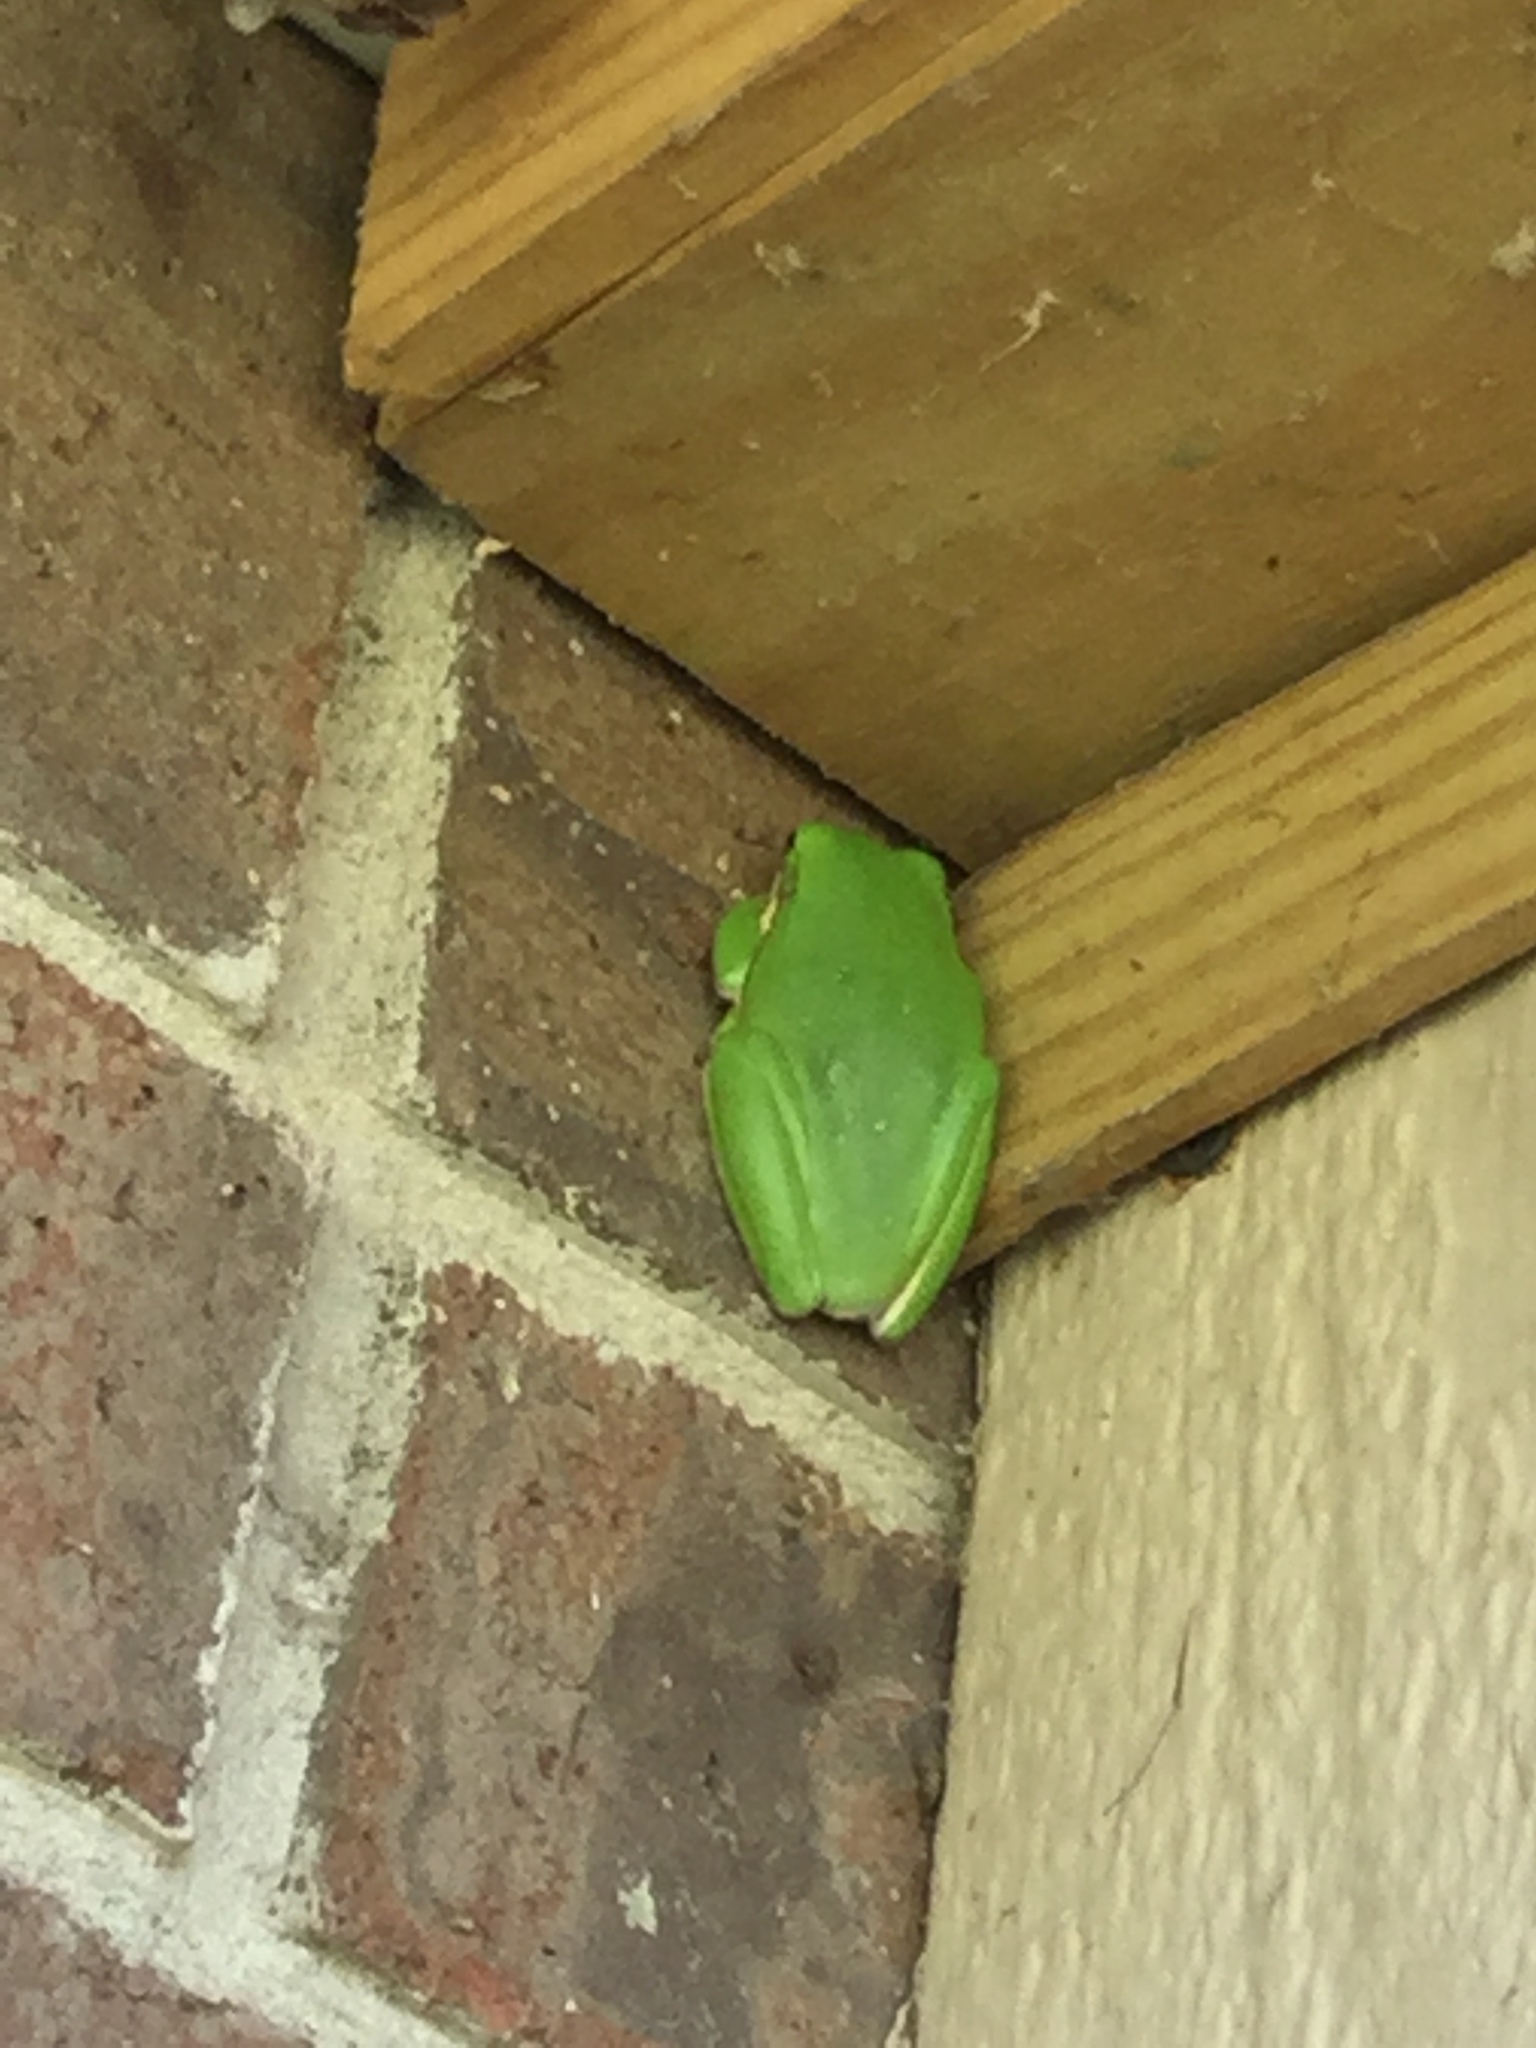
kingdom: Animalia
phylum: Chordata
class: Amphibia
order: Anura
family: Hylidae
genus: Dryophytes
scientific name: Dryophytes cinereus
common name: Green treefrog
